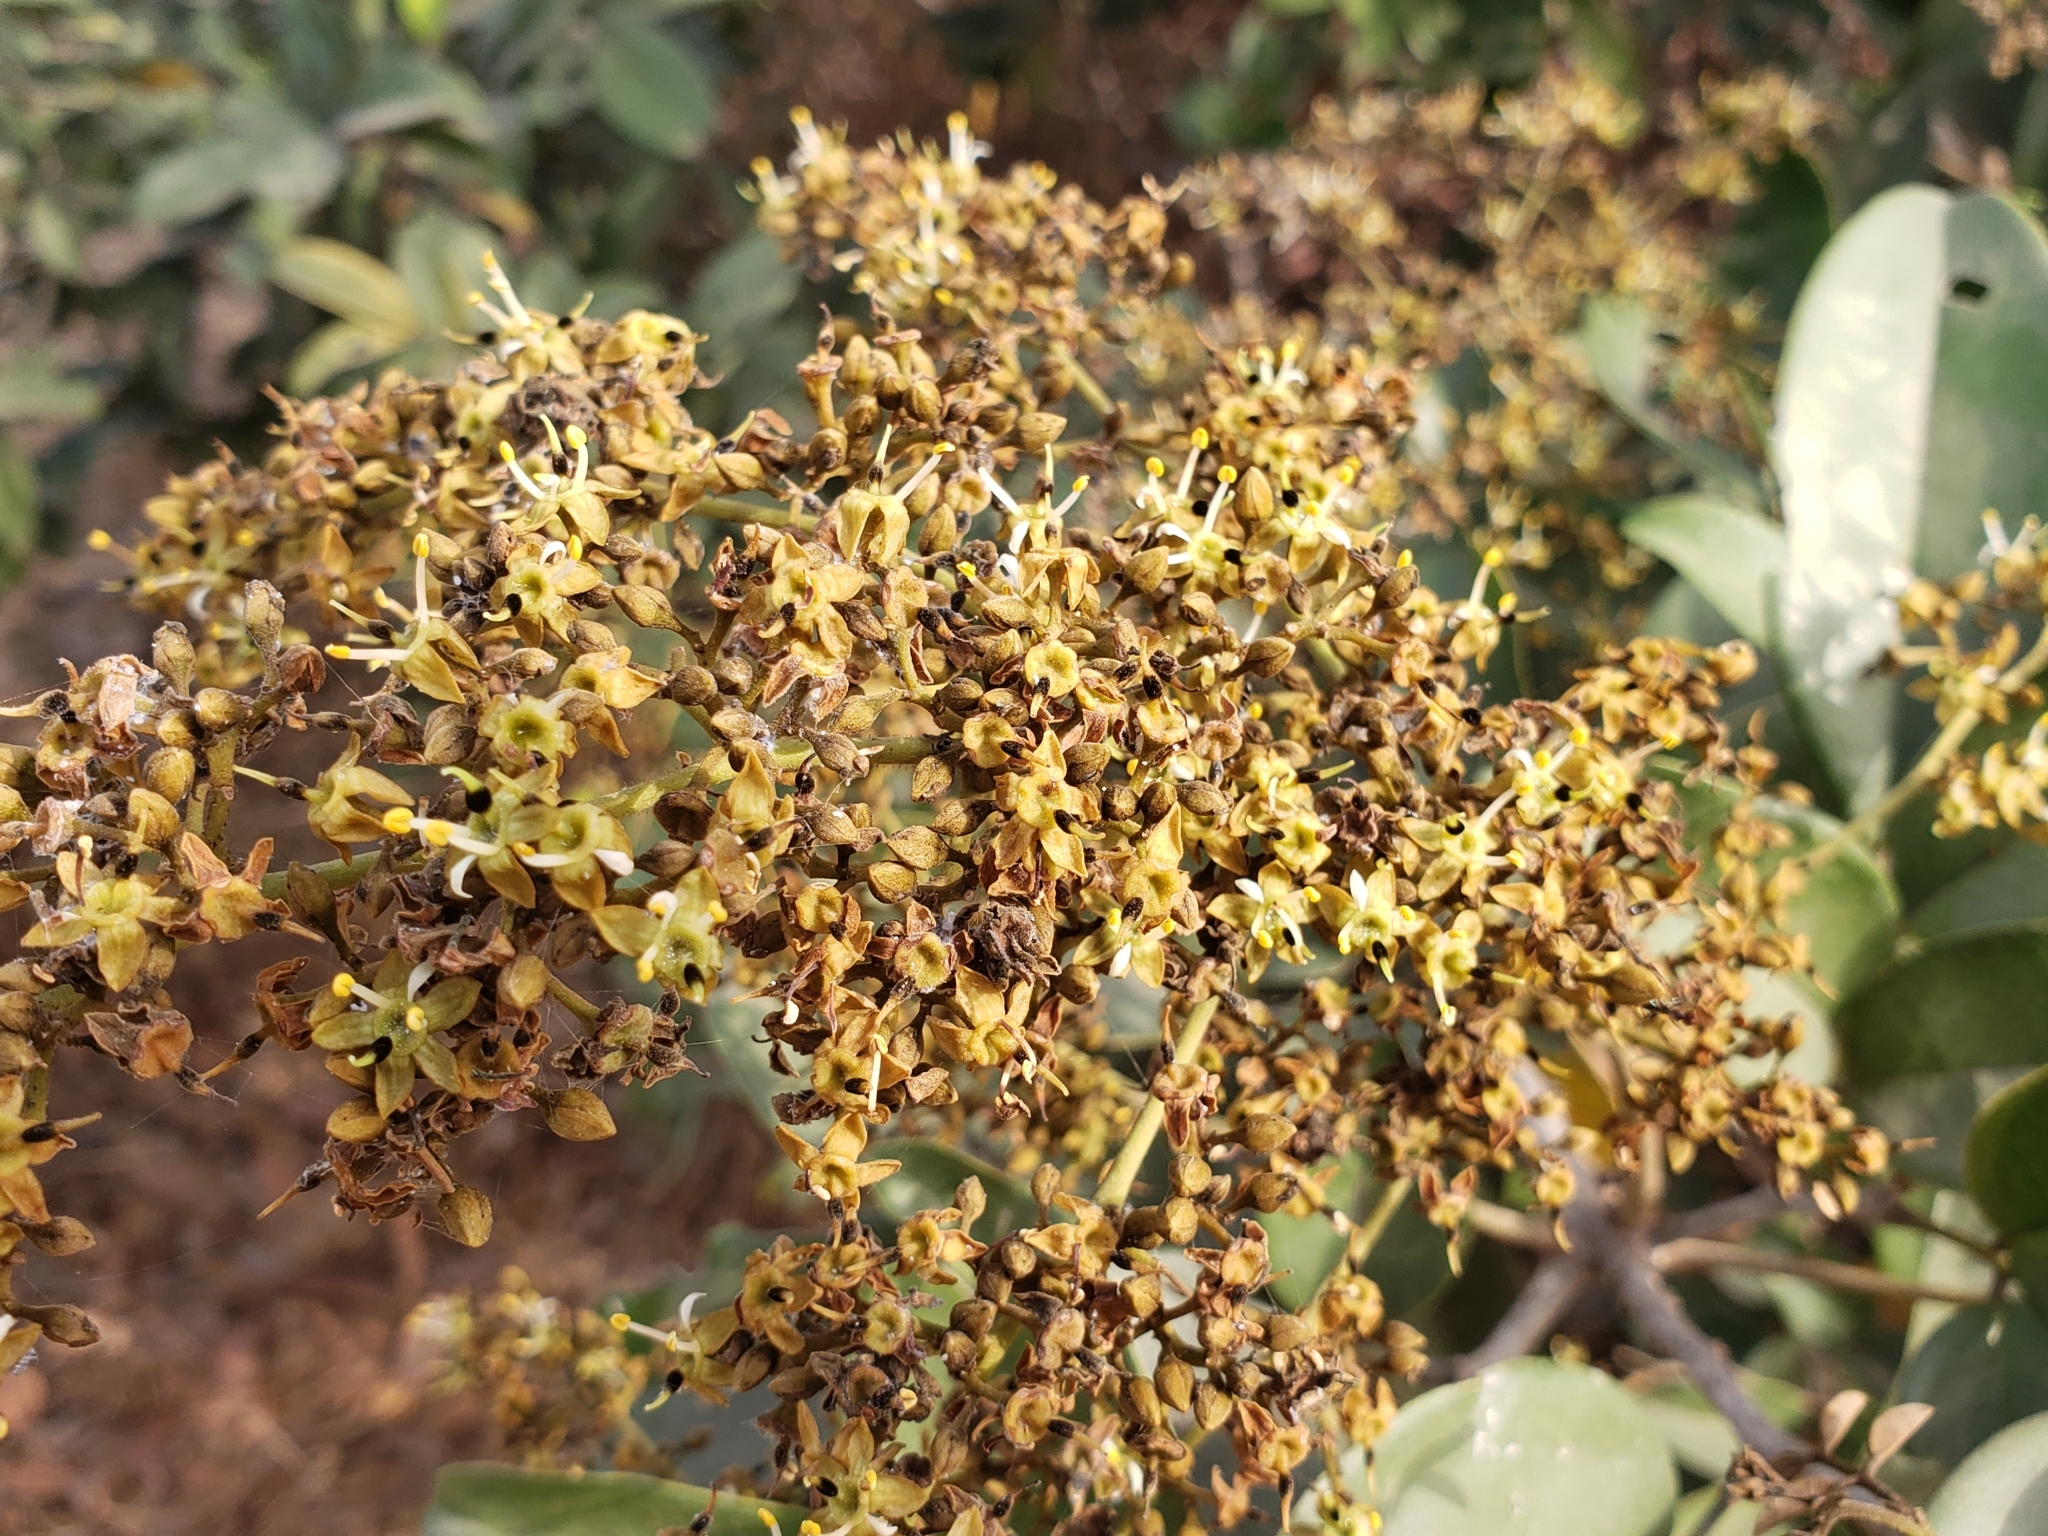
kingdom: Plantae
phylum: Tracheophyta
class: Magnoliopsida
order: Fabales
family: Fabaceae
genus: Dialium
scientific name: Dialium guineense
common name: Sierra leone-tamarind
